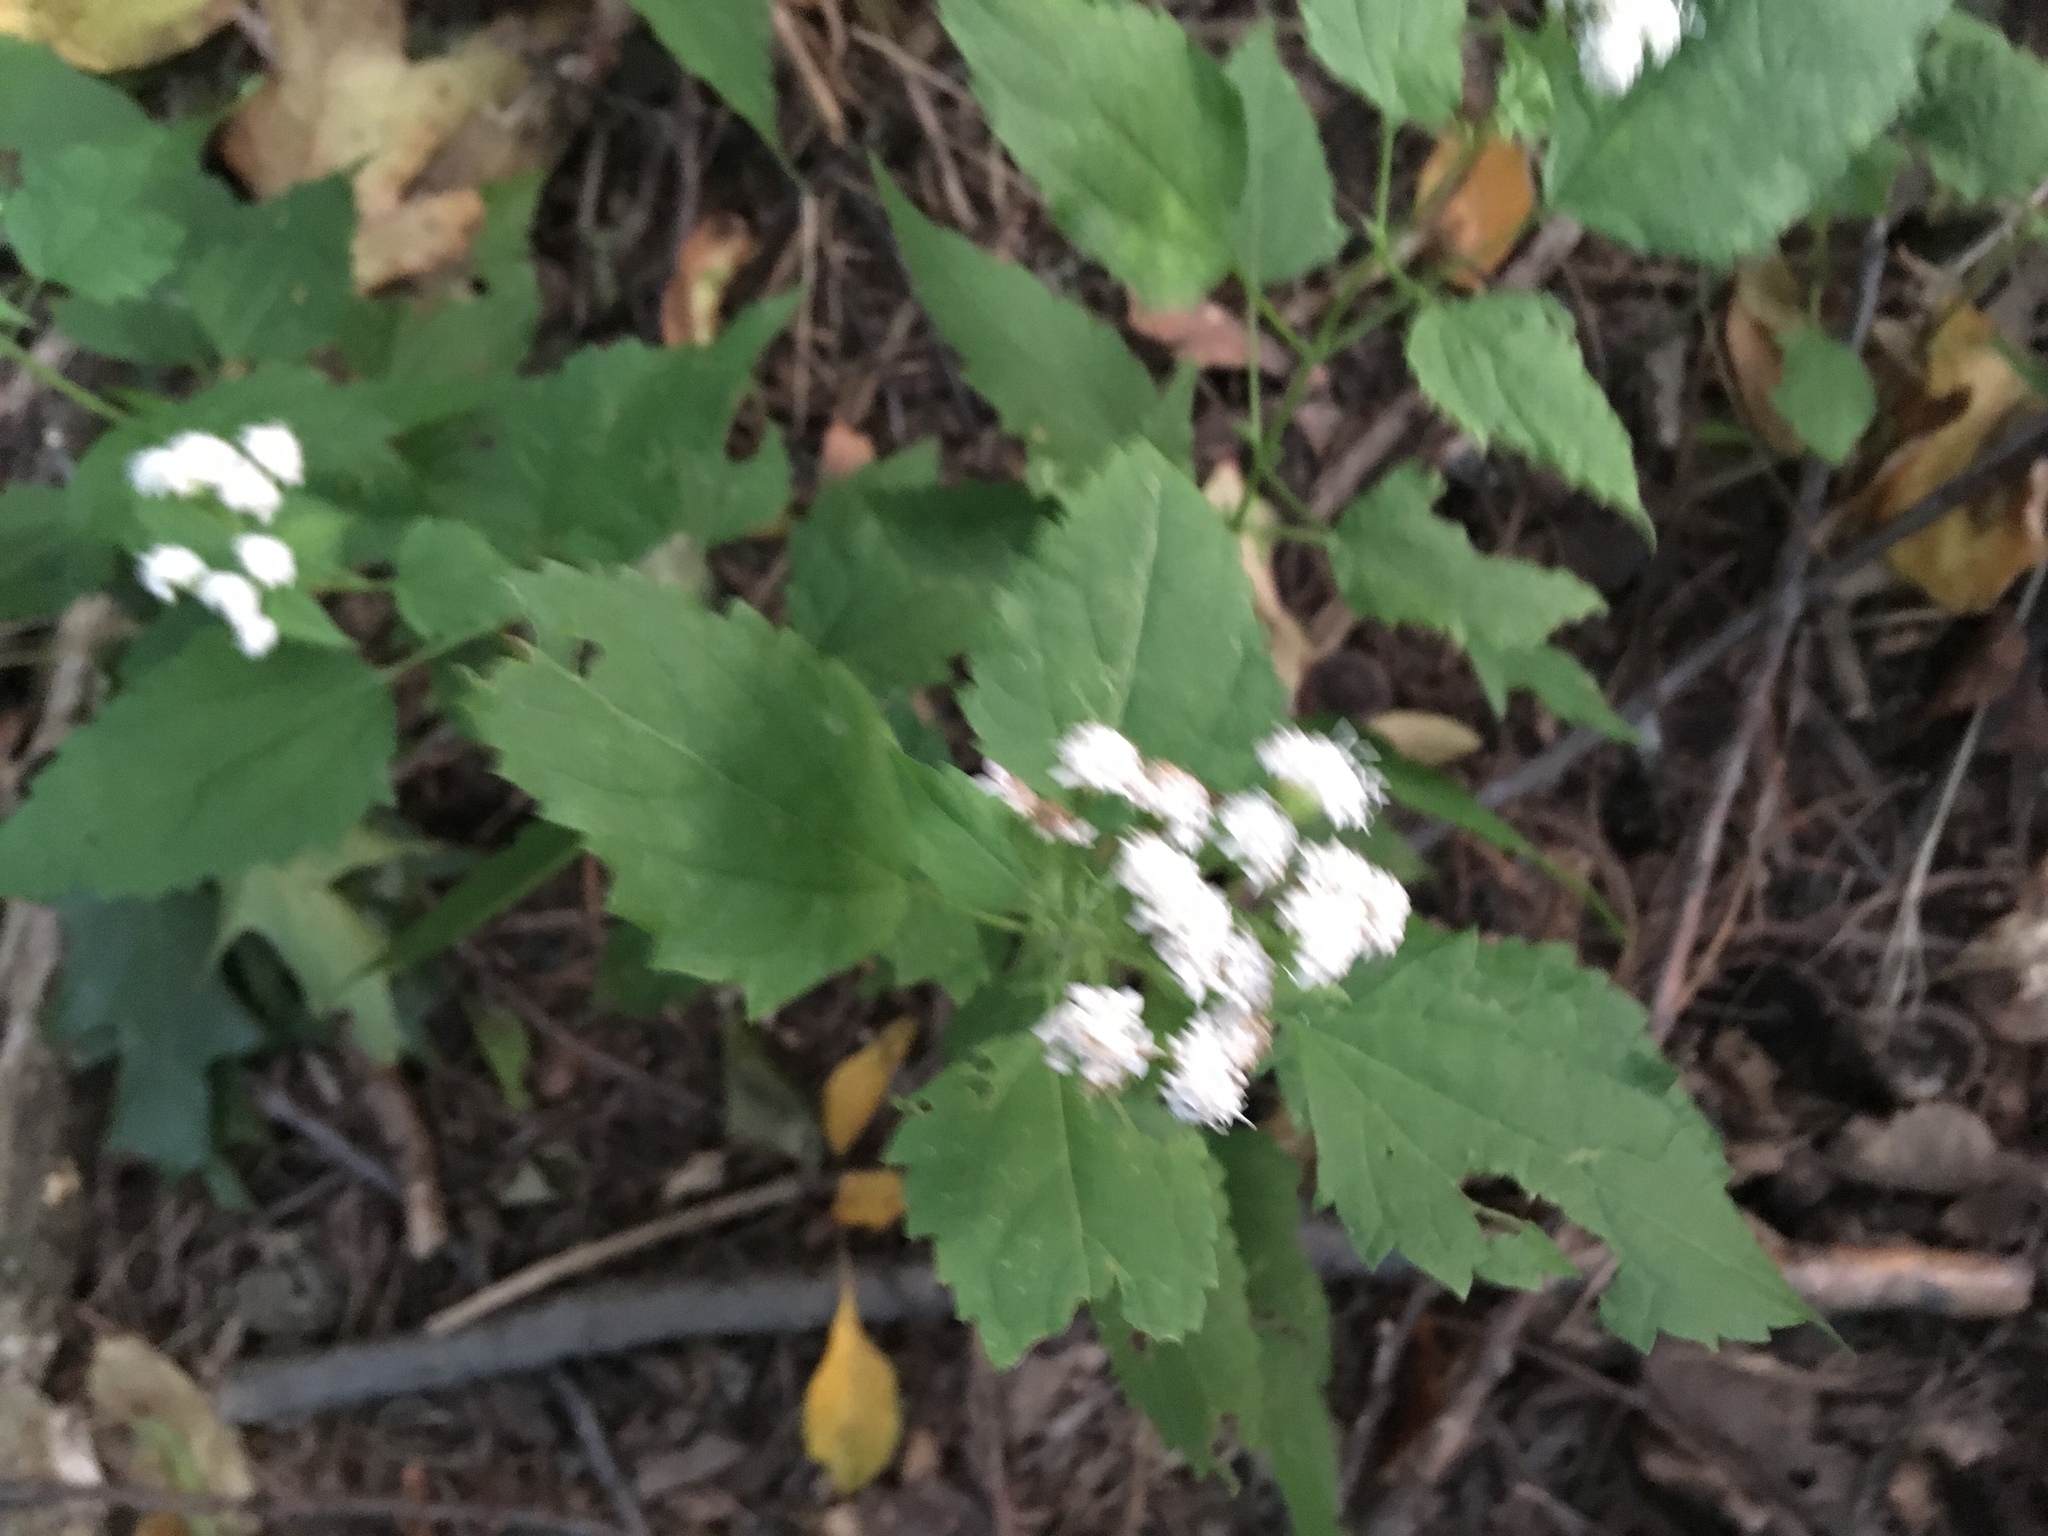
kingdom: Plantae
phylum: Tracheophyta
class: Magnoliopsida
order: Asterales
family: Asteraceae
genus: Ageratina
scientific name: Ageratina altissima
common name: White snakeroot
